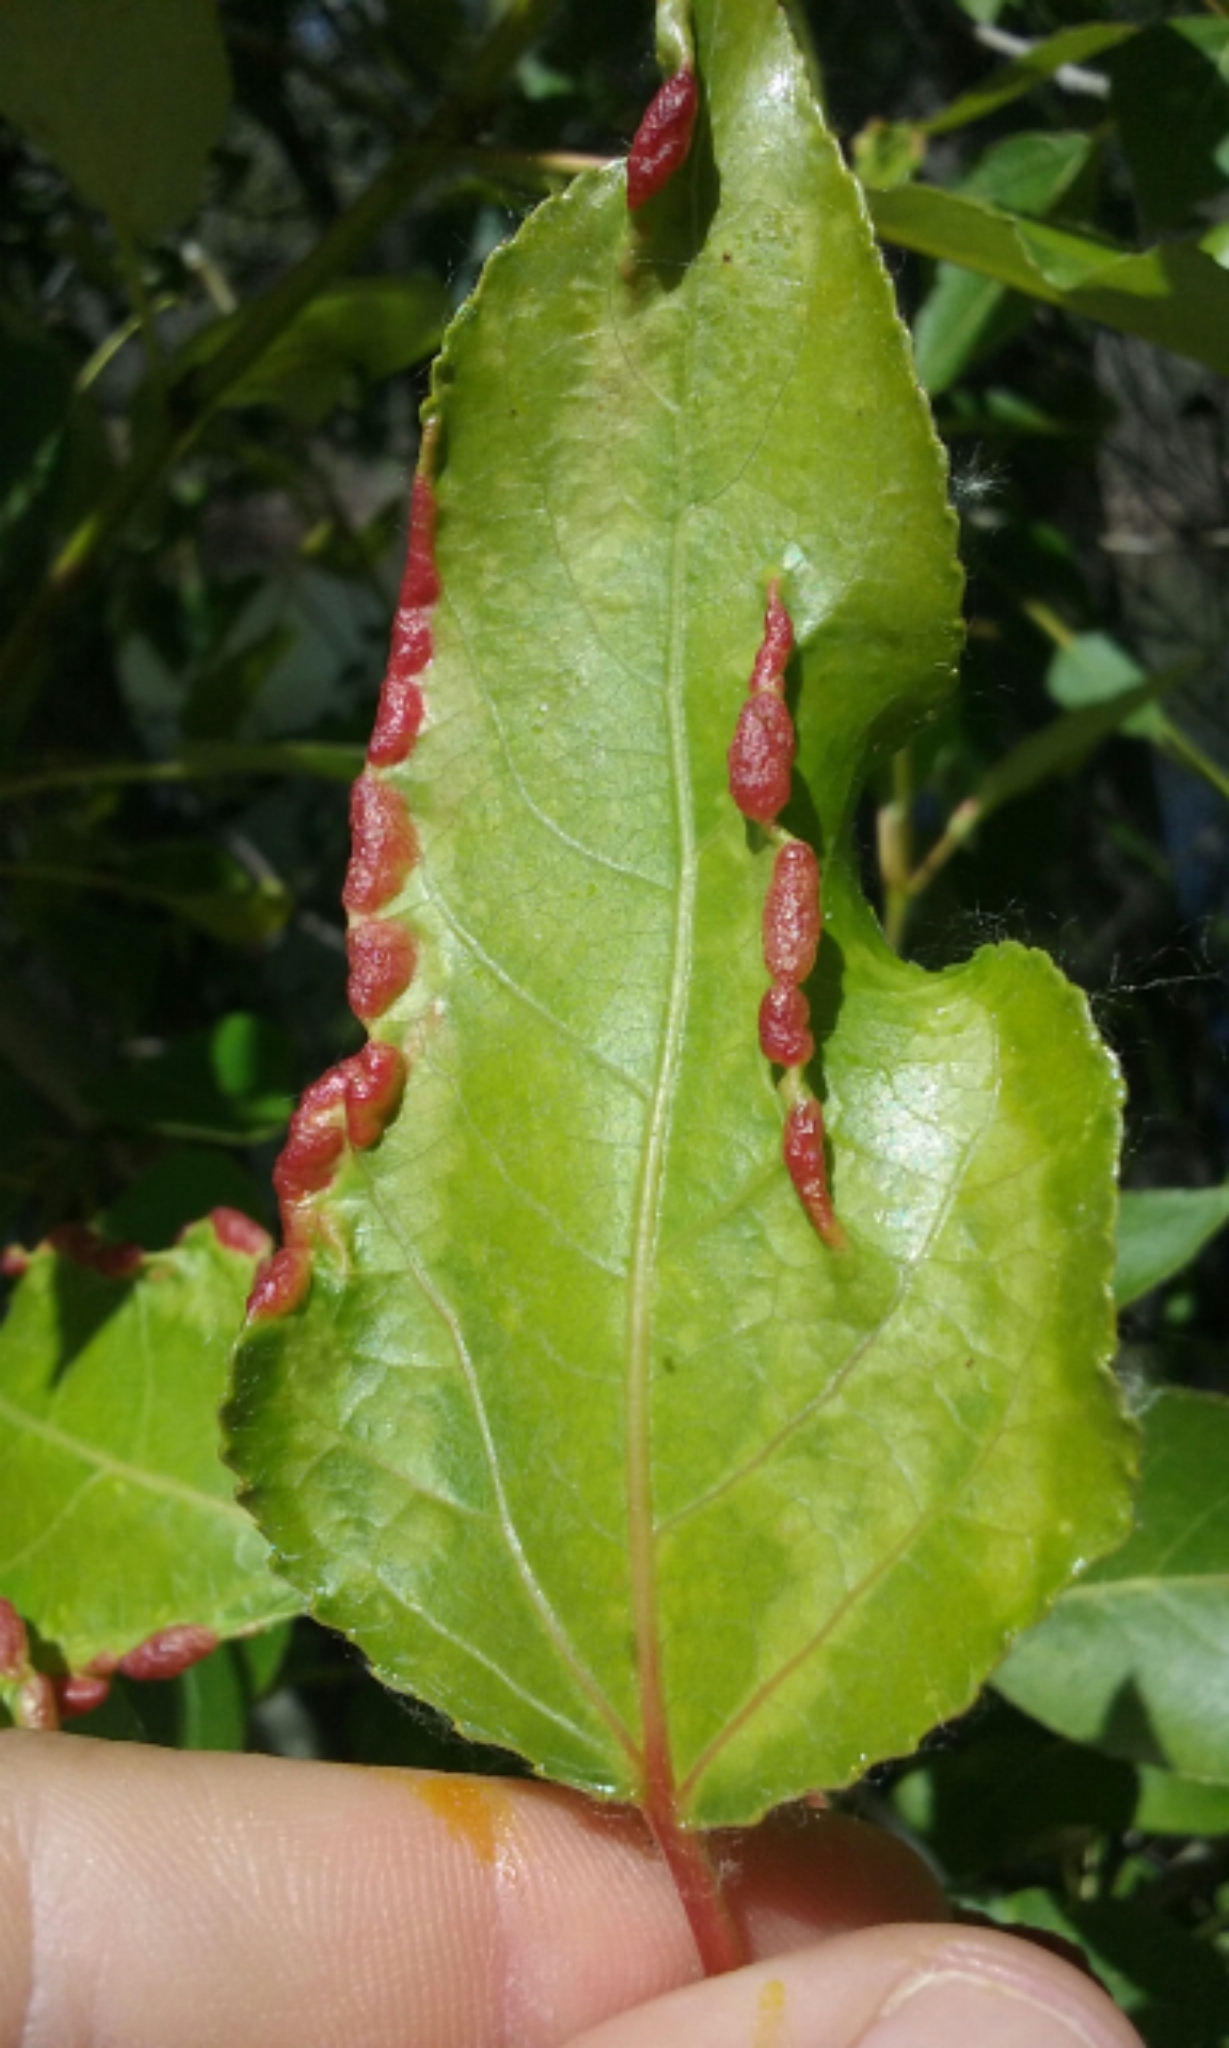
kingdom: Animalia
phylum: Arthropoda
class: Insecta
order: Hemiptera
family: Aphididae
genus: Thecabius
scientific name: Thecabius populimonilis
